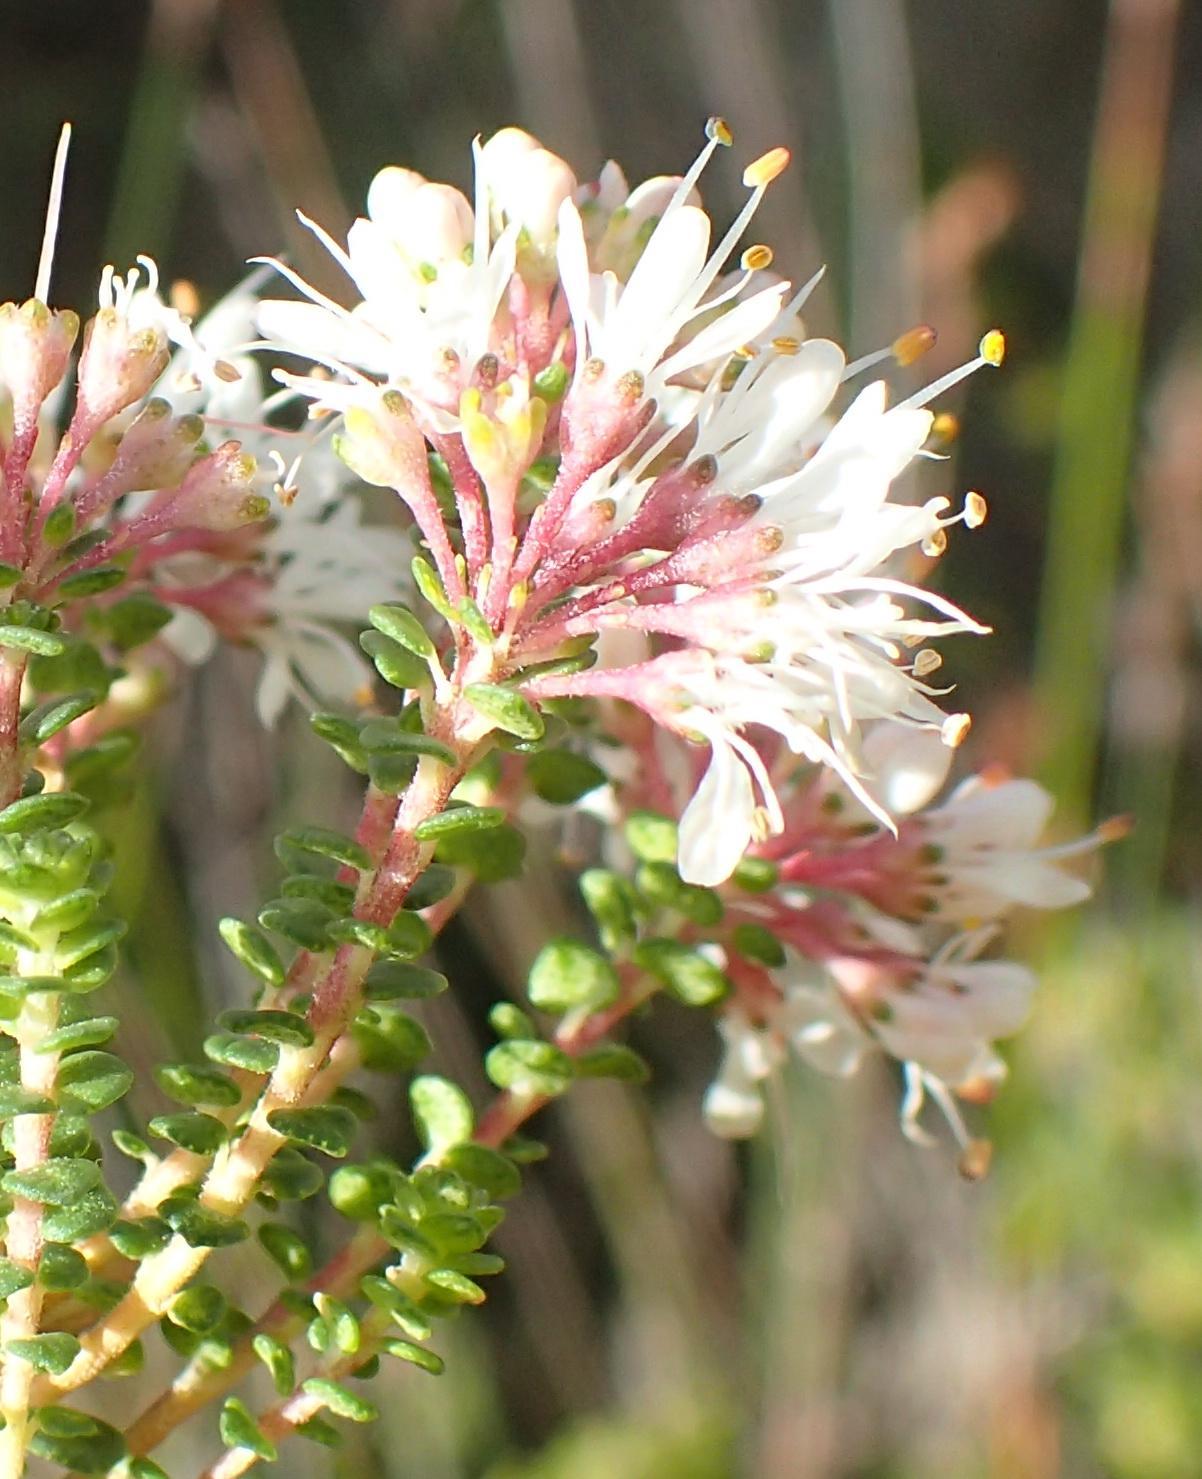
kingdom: Plantae
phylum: Tracheophyta
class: Magnoliopsida
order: Sapindales
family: Rutaceae
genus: Agathosma
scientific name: Agathosma muirii
